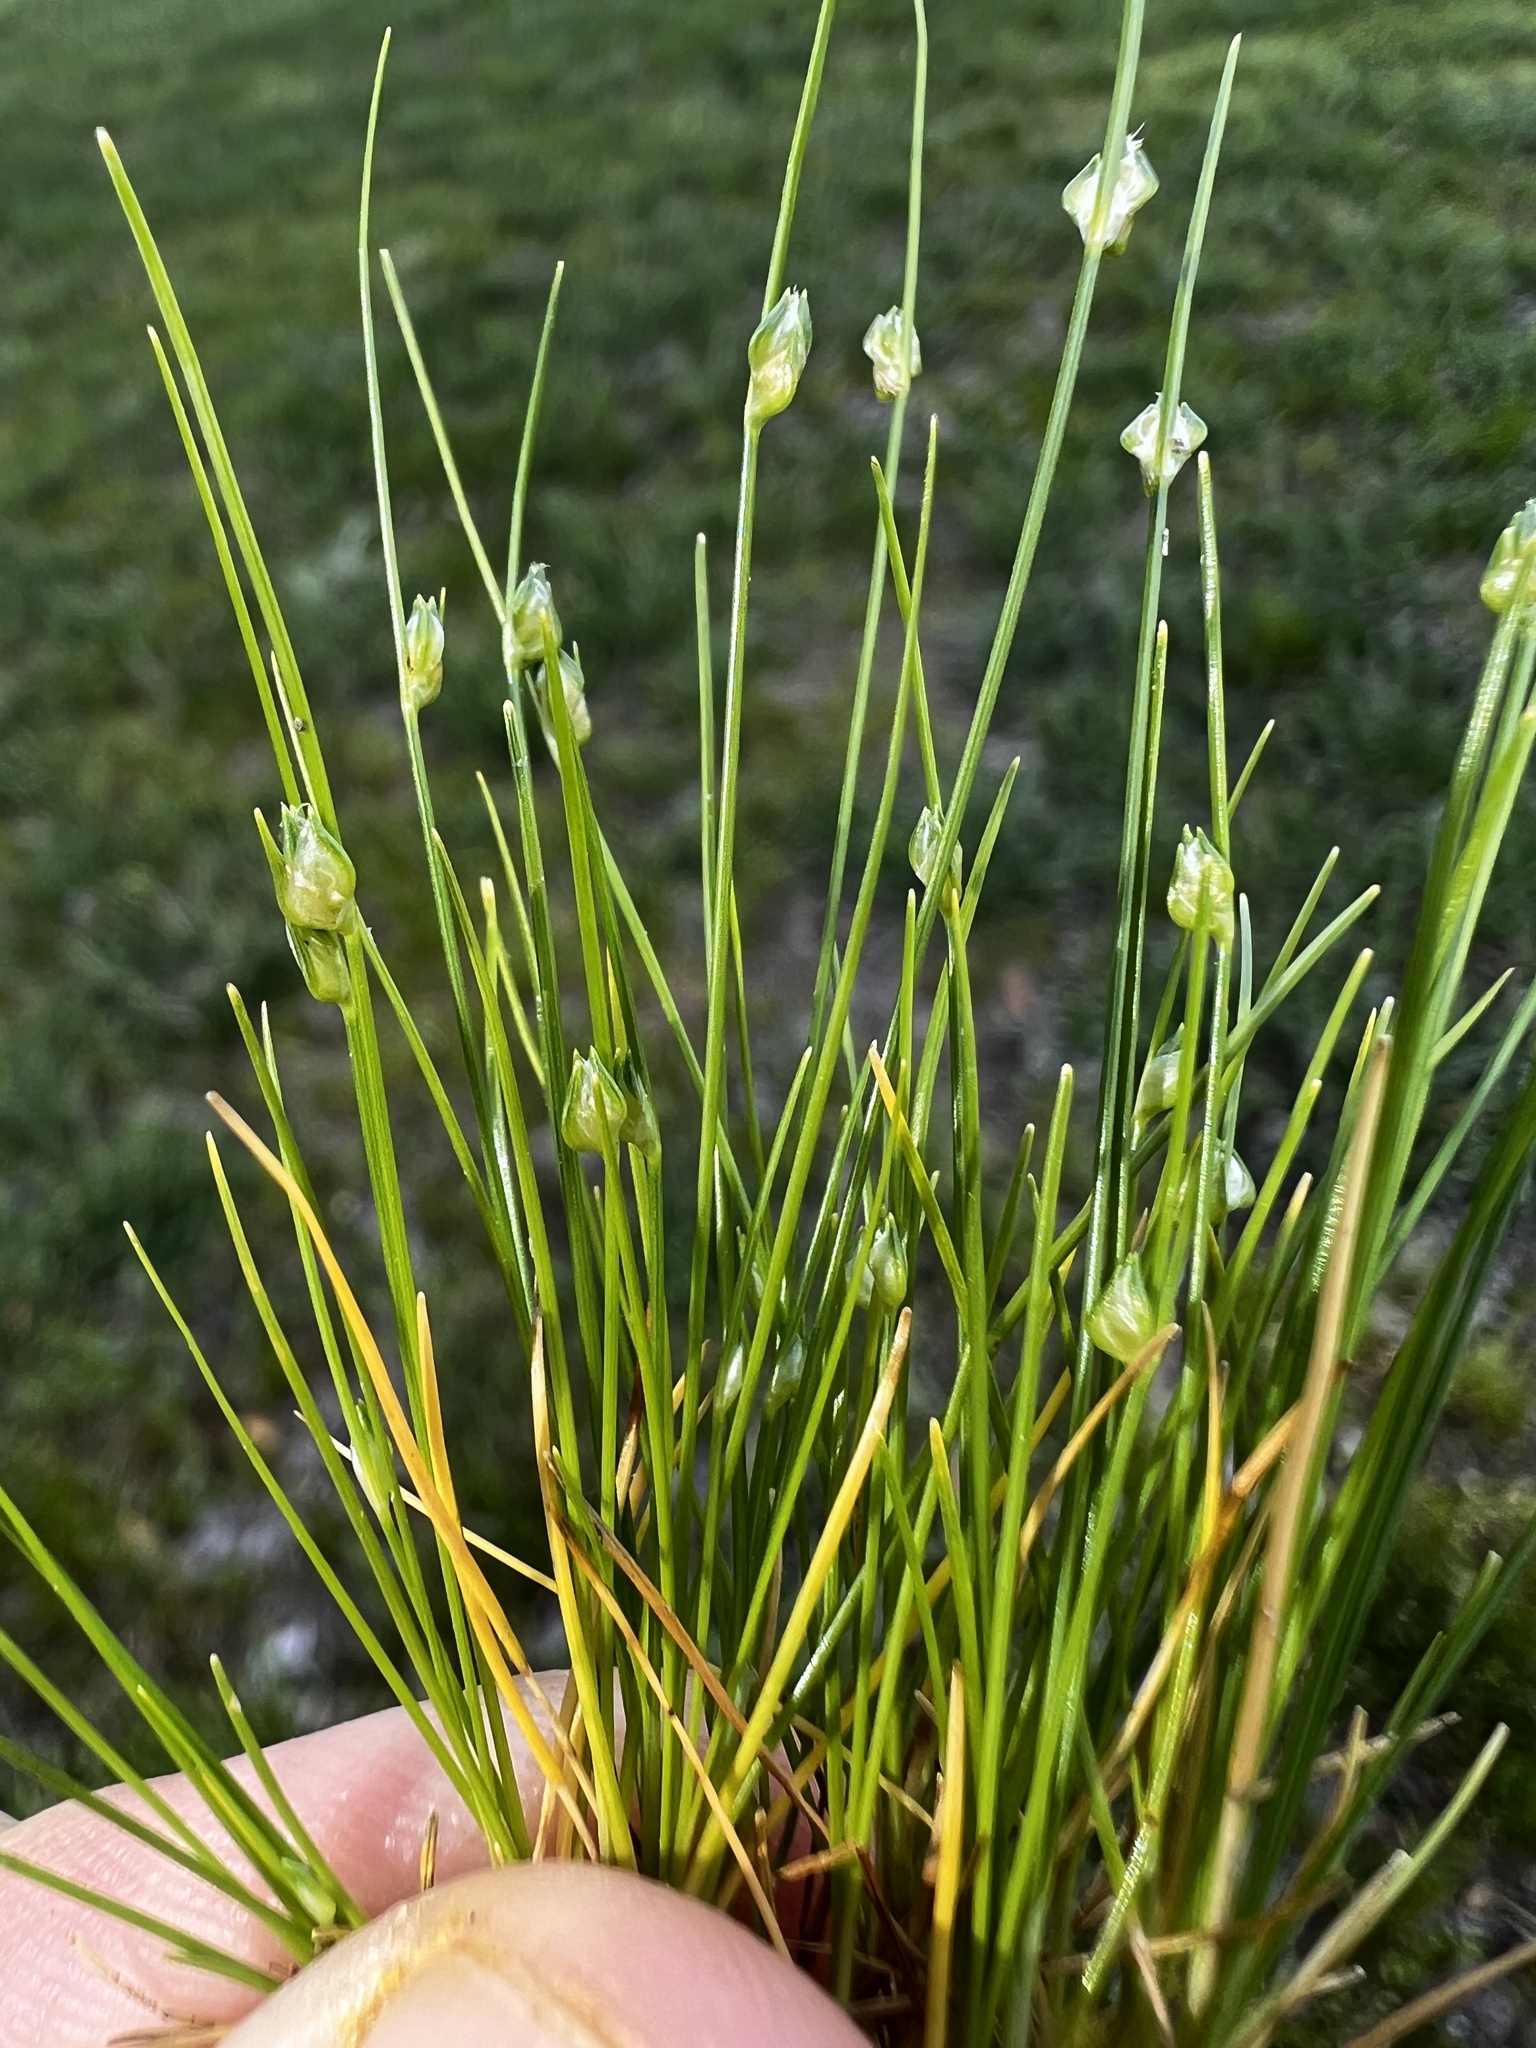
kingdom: Plantae
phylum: Tracheophyta
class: Liliopsida
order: Poales
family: Cyperaceae
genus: Isolepis
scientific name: Isolepis carinata
